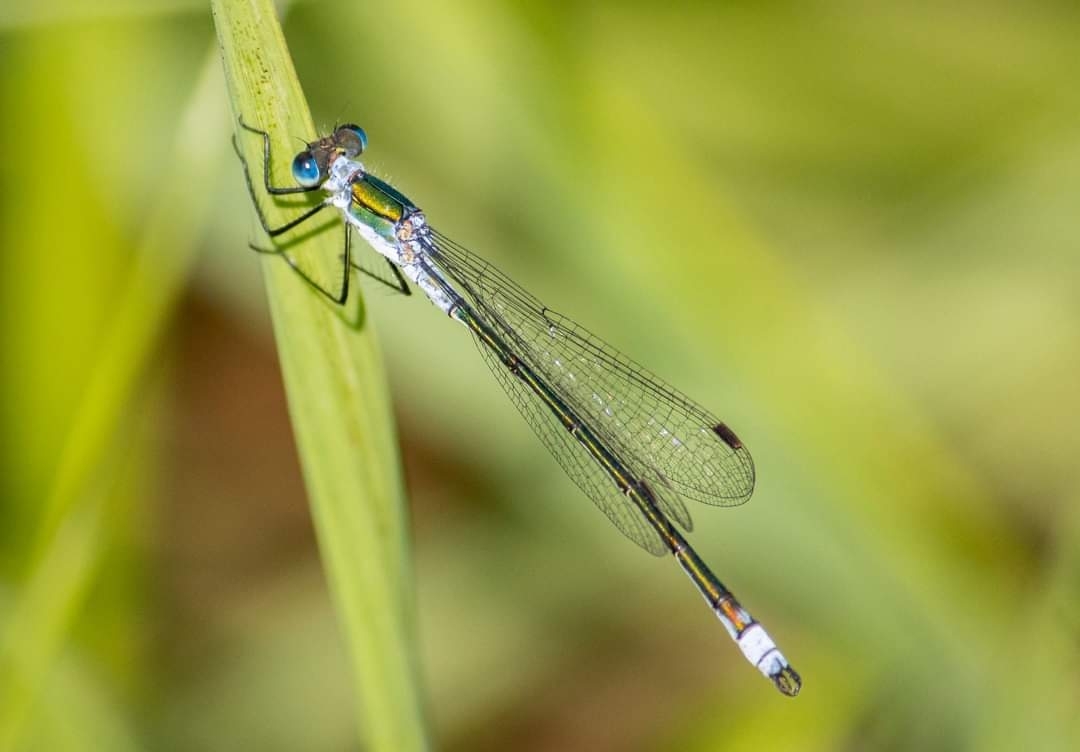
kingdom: Animalia
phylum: Arthropoda
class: Insecta
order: Odonata
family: Lestidae
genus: Lestes
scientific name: Lestes sponsa
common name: Common spreadwing
